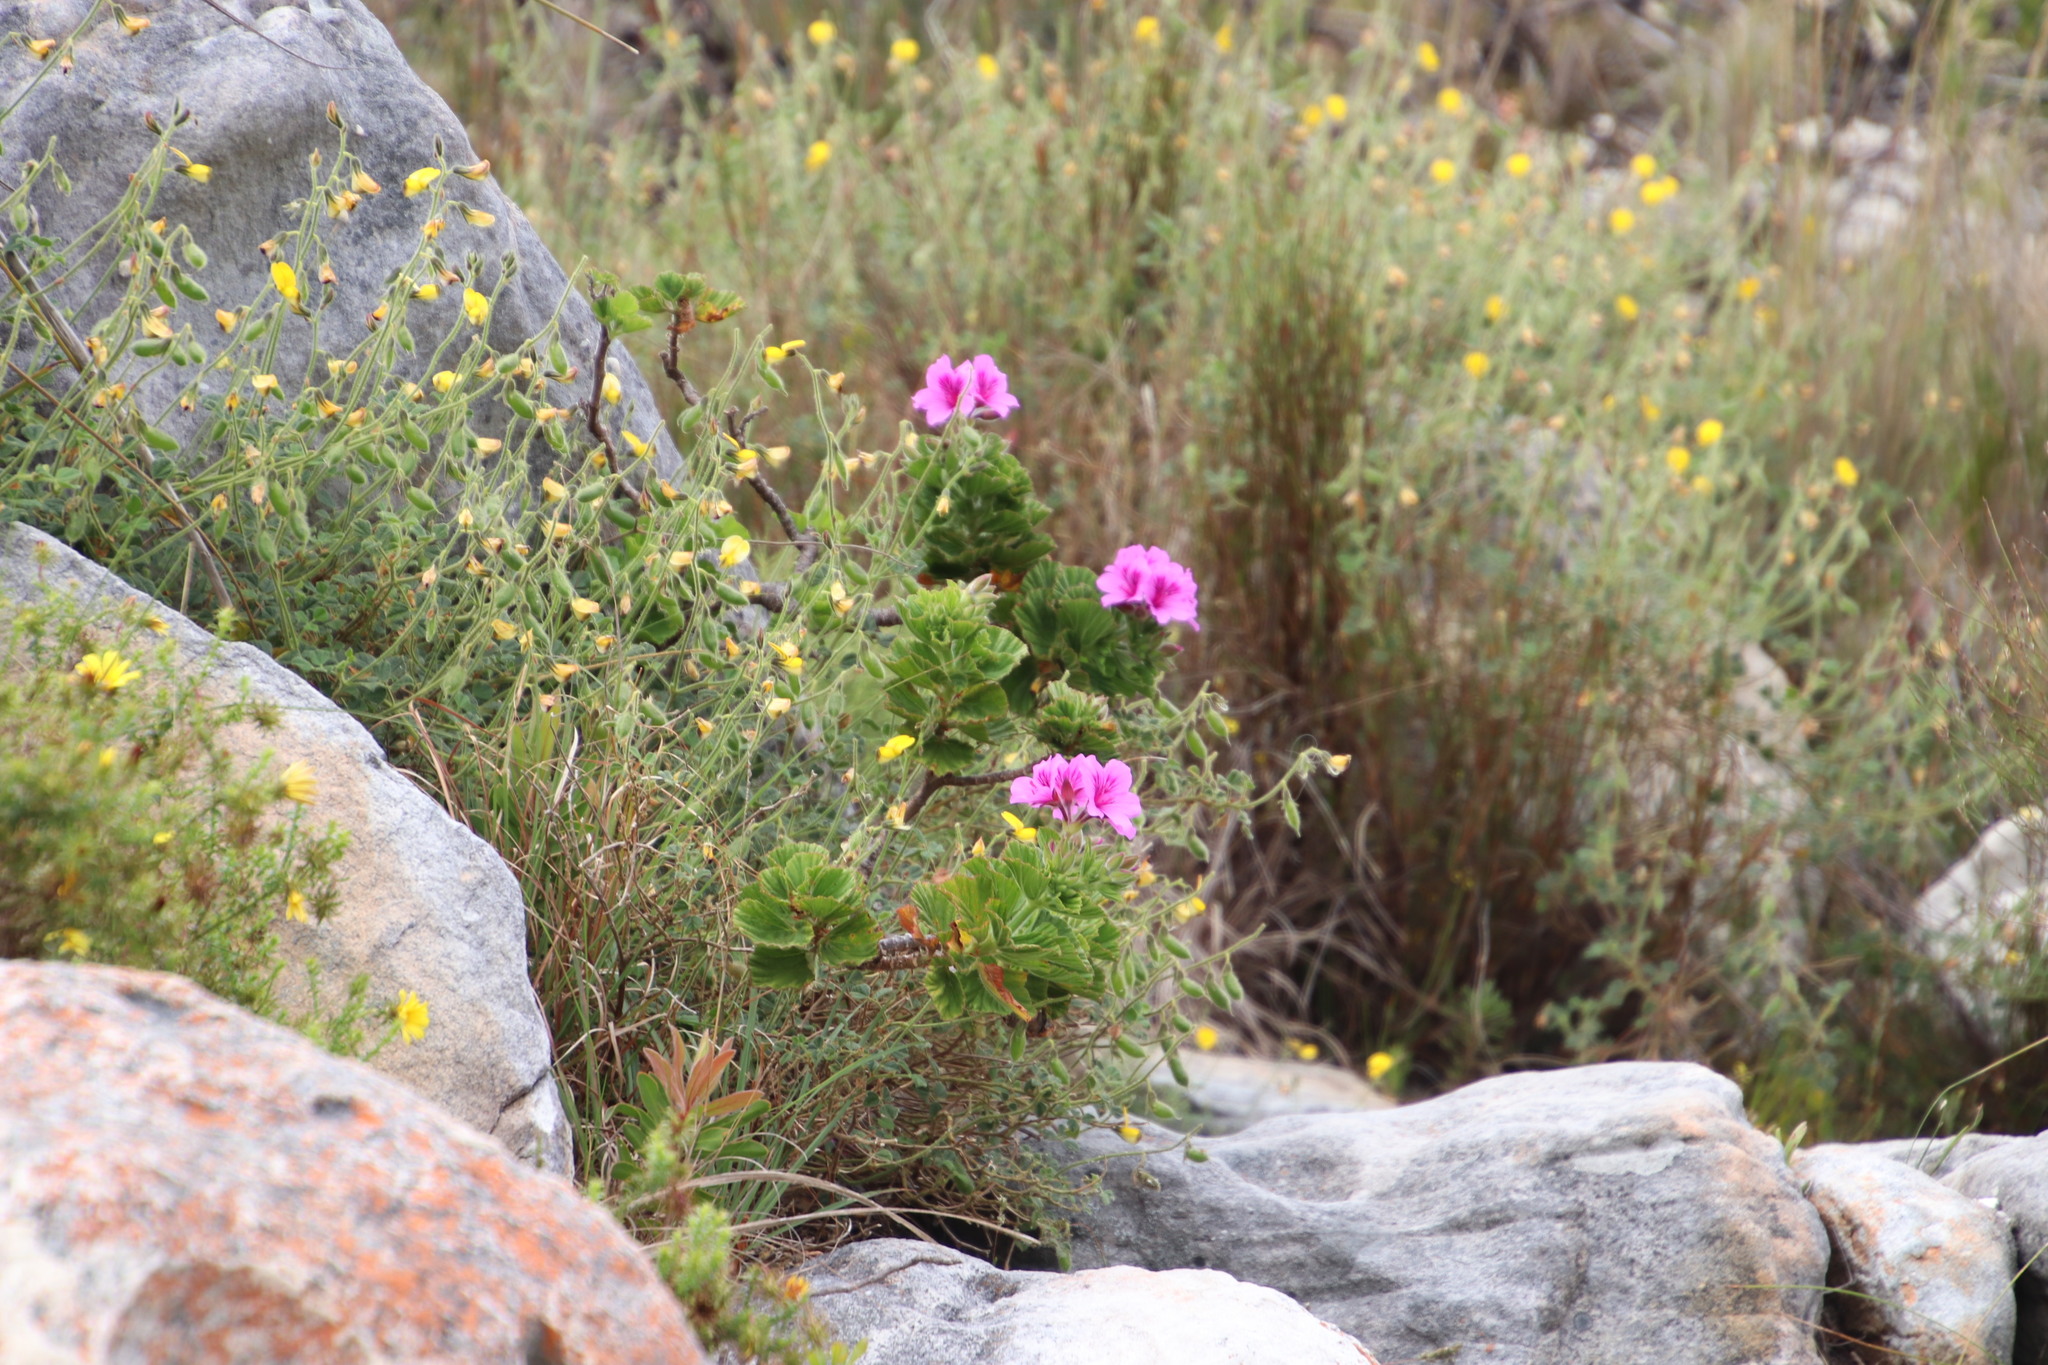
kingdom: Plantae
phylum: Tracheophyta
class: Magnoliopsida
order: Geraniales
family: Geraniaceae
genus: Pelargonium
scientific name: Pelargonium cucullatum
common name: Tree pelargonium
